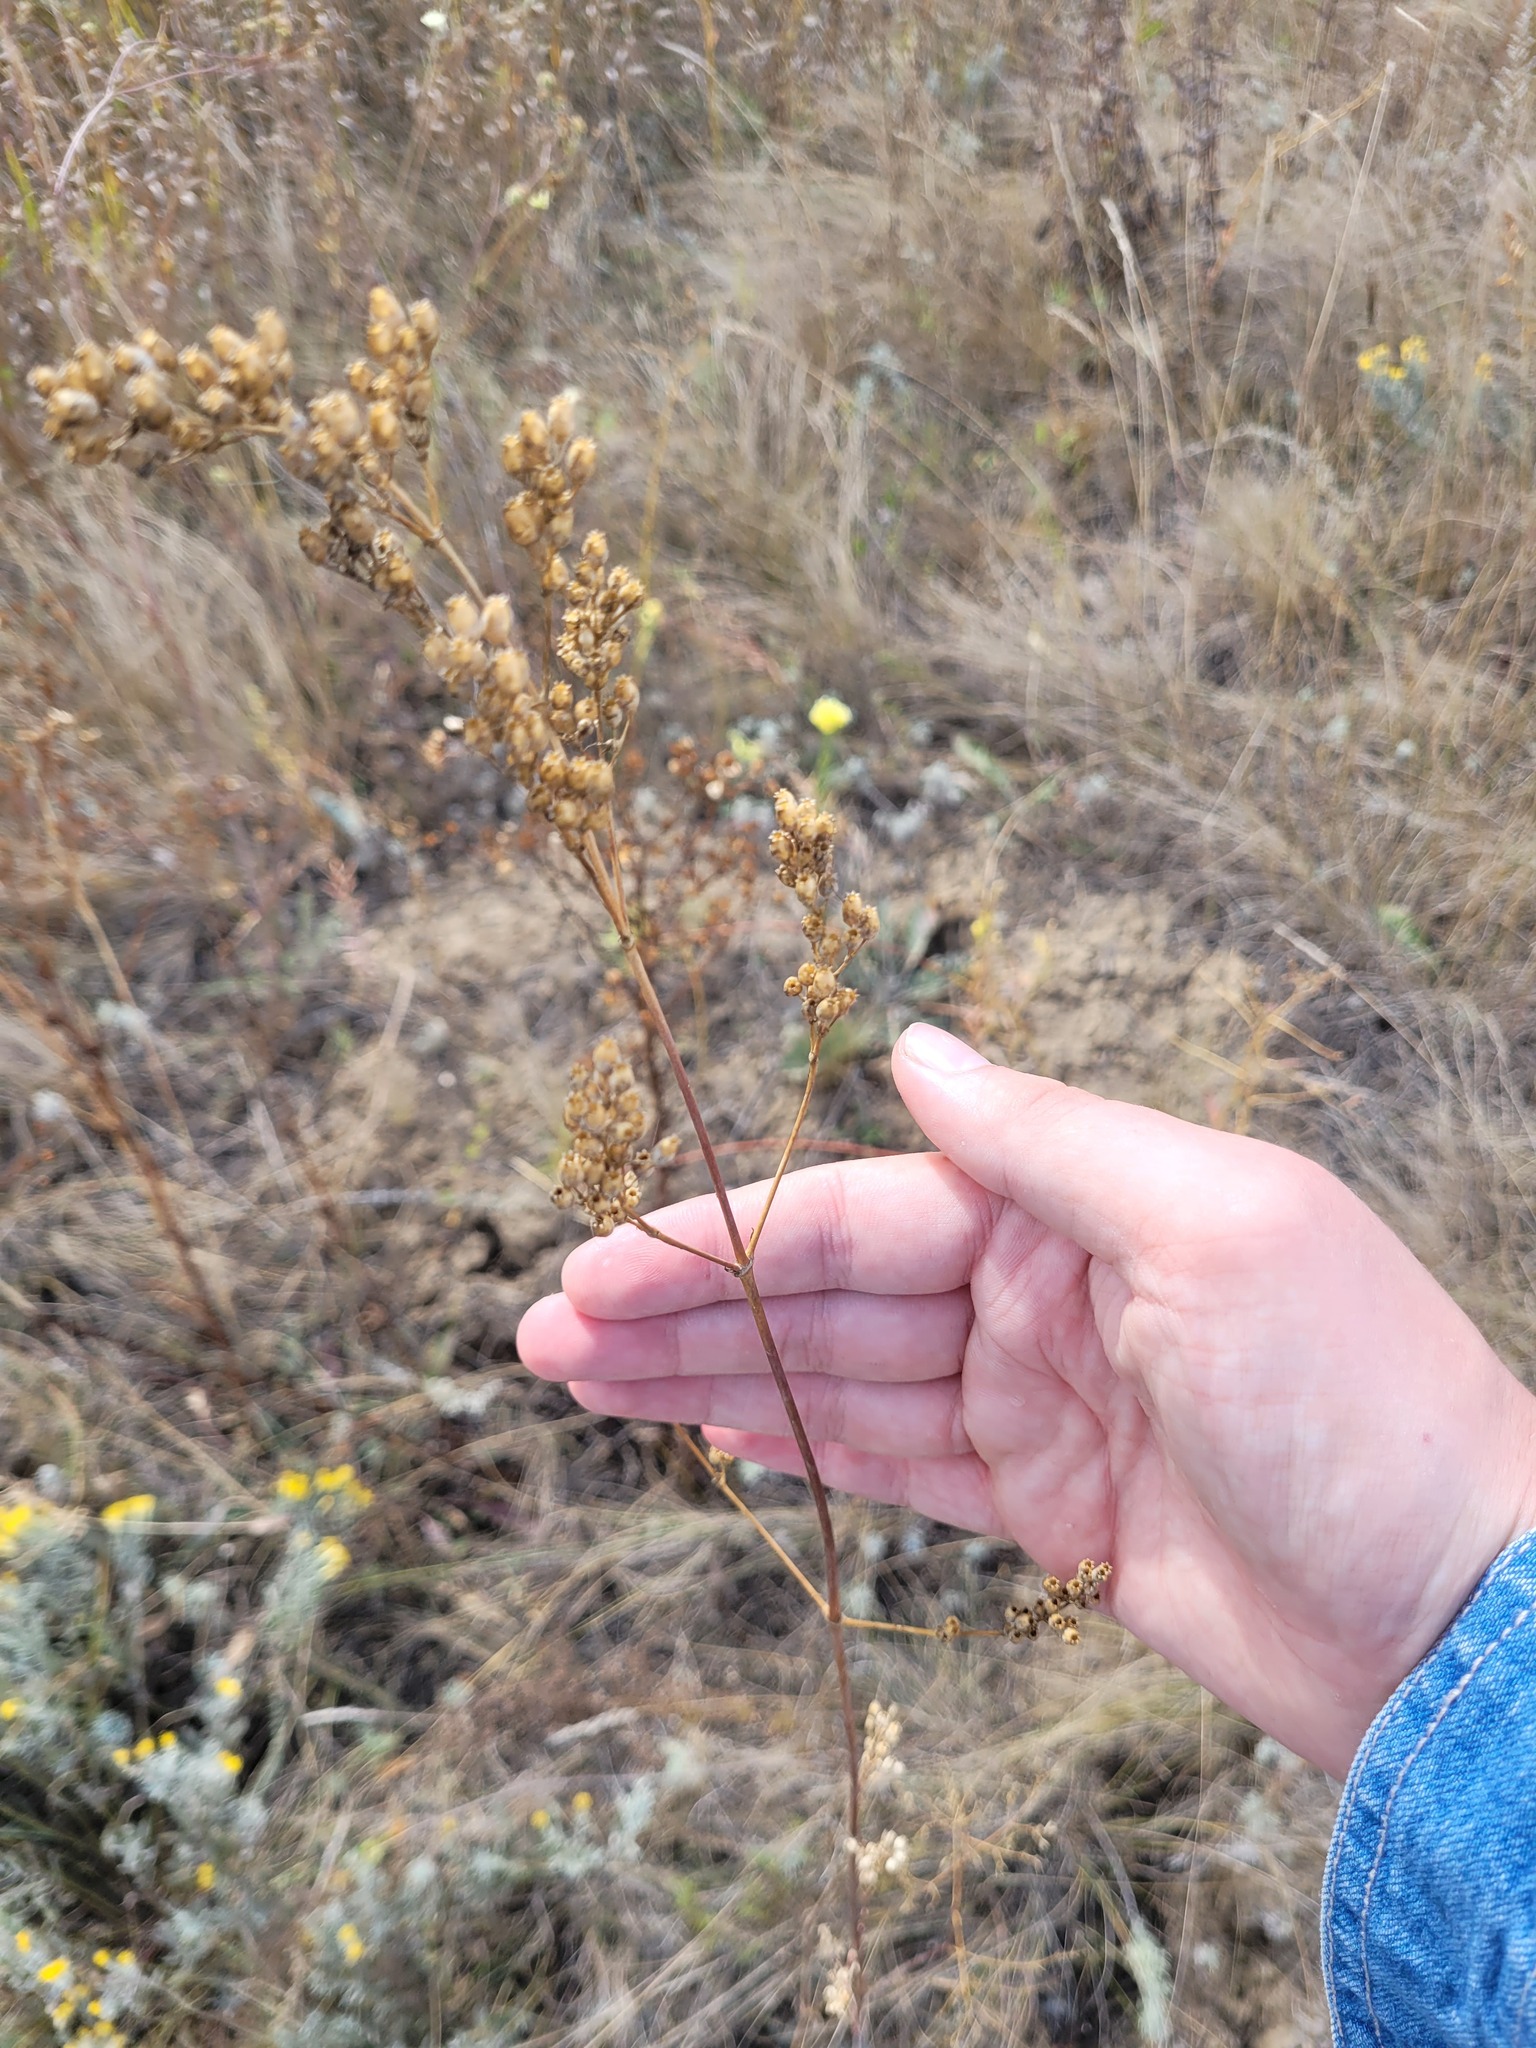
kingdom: Plantae
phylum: Tracheophyta
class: Magnoliopsida
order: Caryophyllales
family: Caryophyllaceae
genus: Silene
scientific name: Silene wolgensis
